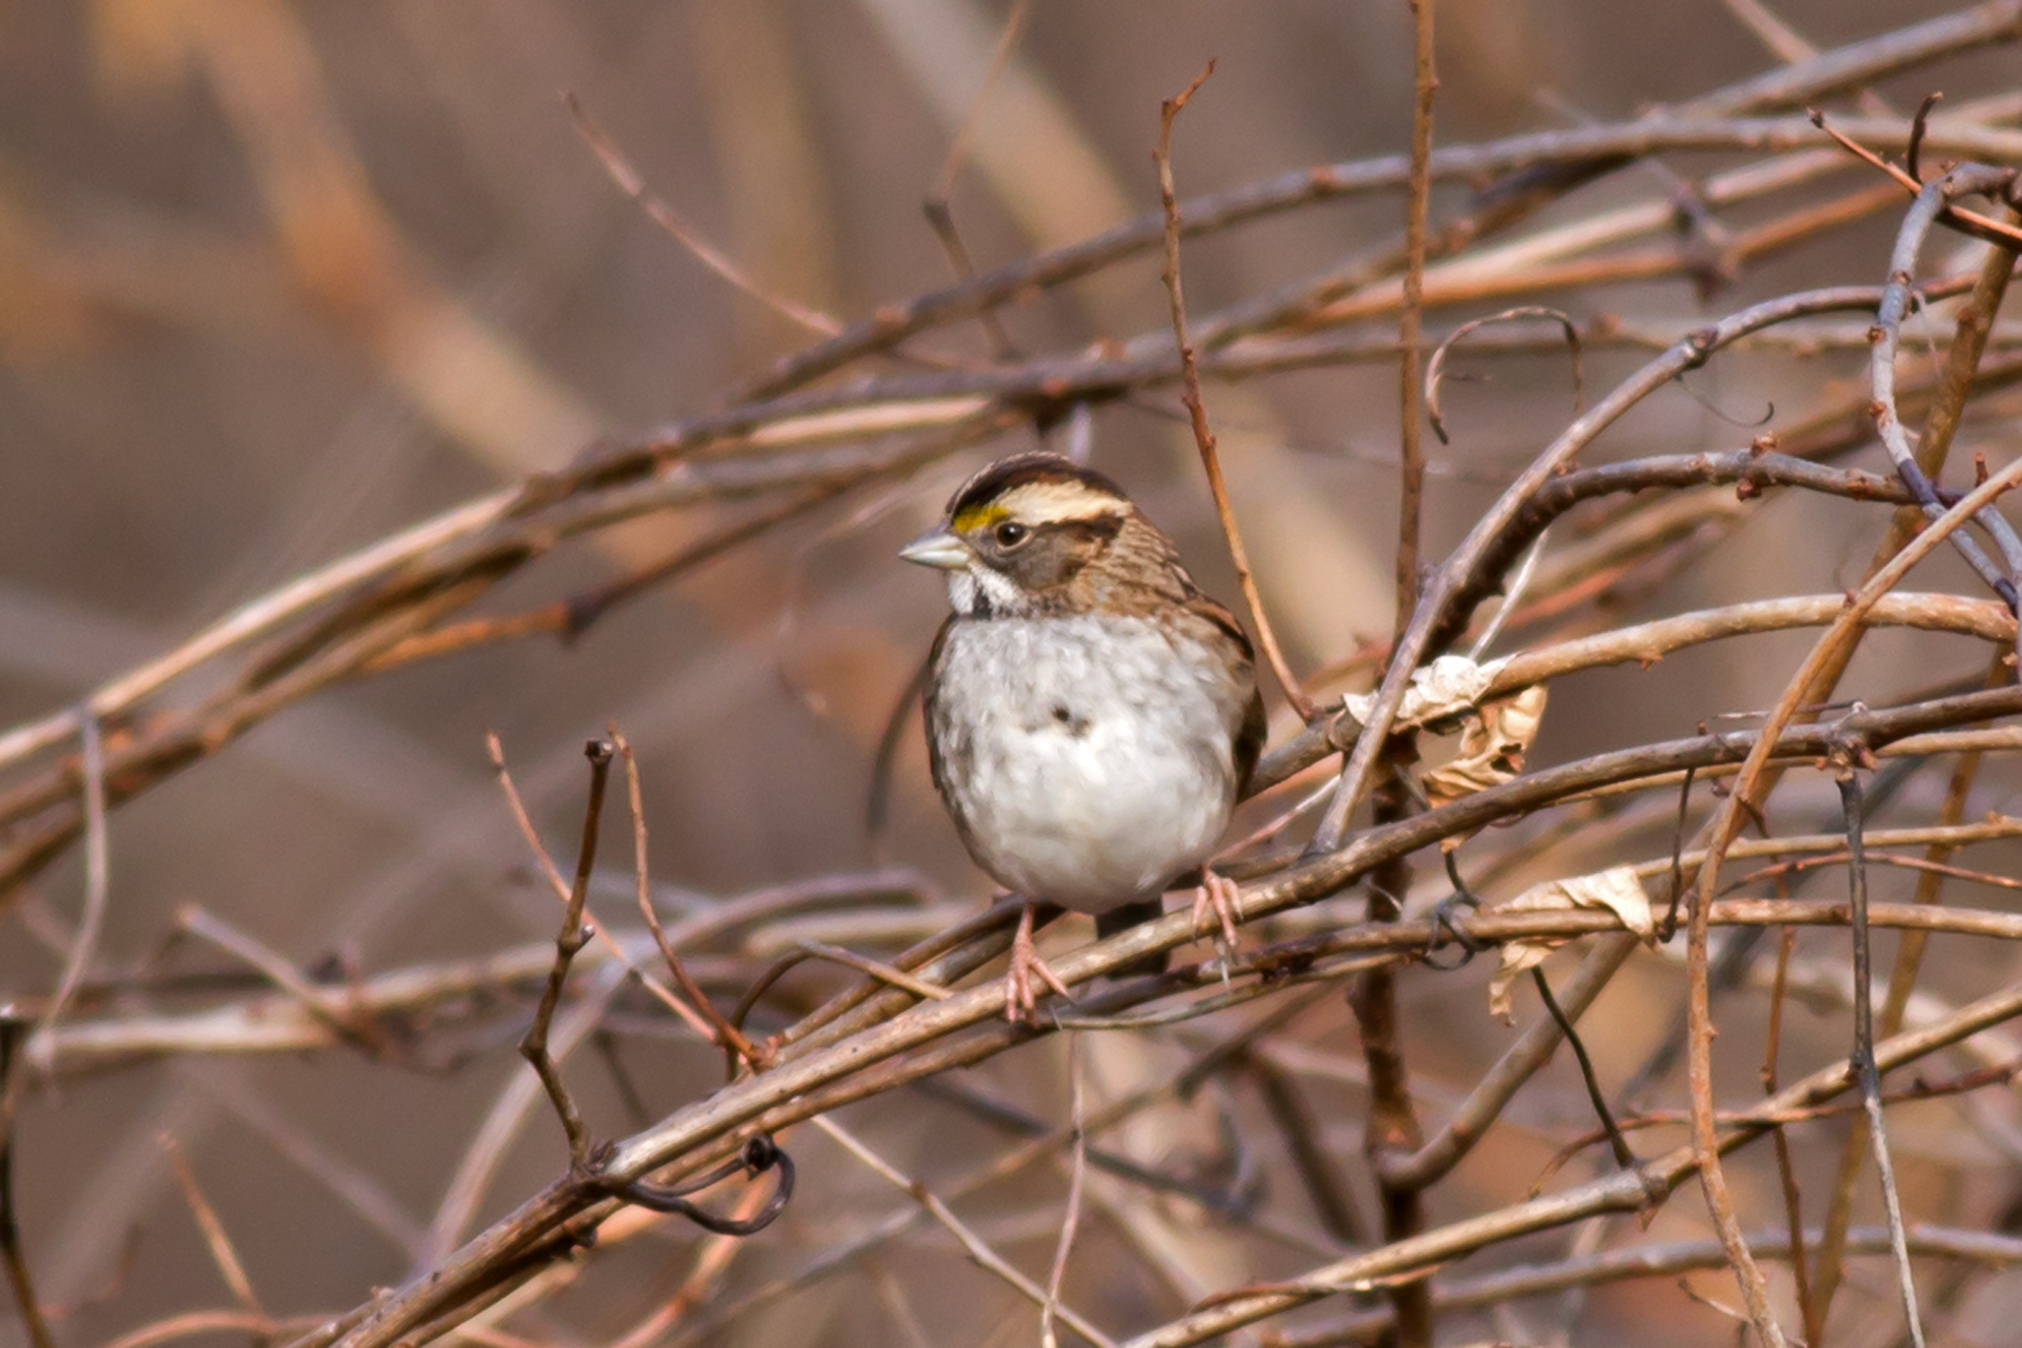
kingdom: Animalia
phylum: Chordata
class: Aves
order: Passeriformes
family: Passerellidae
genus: Zonotrichia
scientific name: Zonotrichia albicollis
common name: White-throated sparrow
